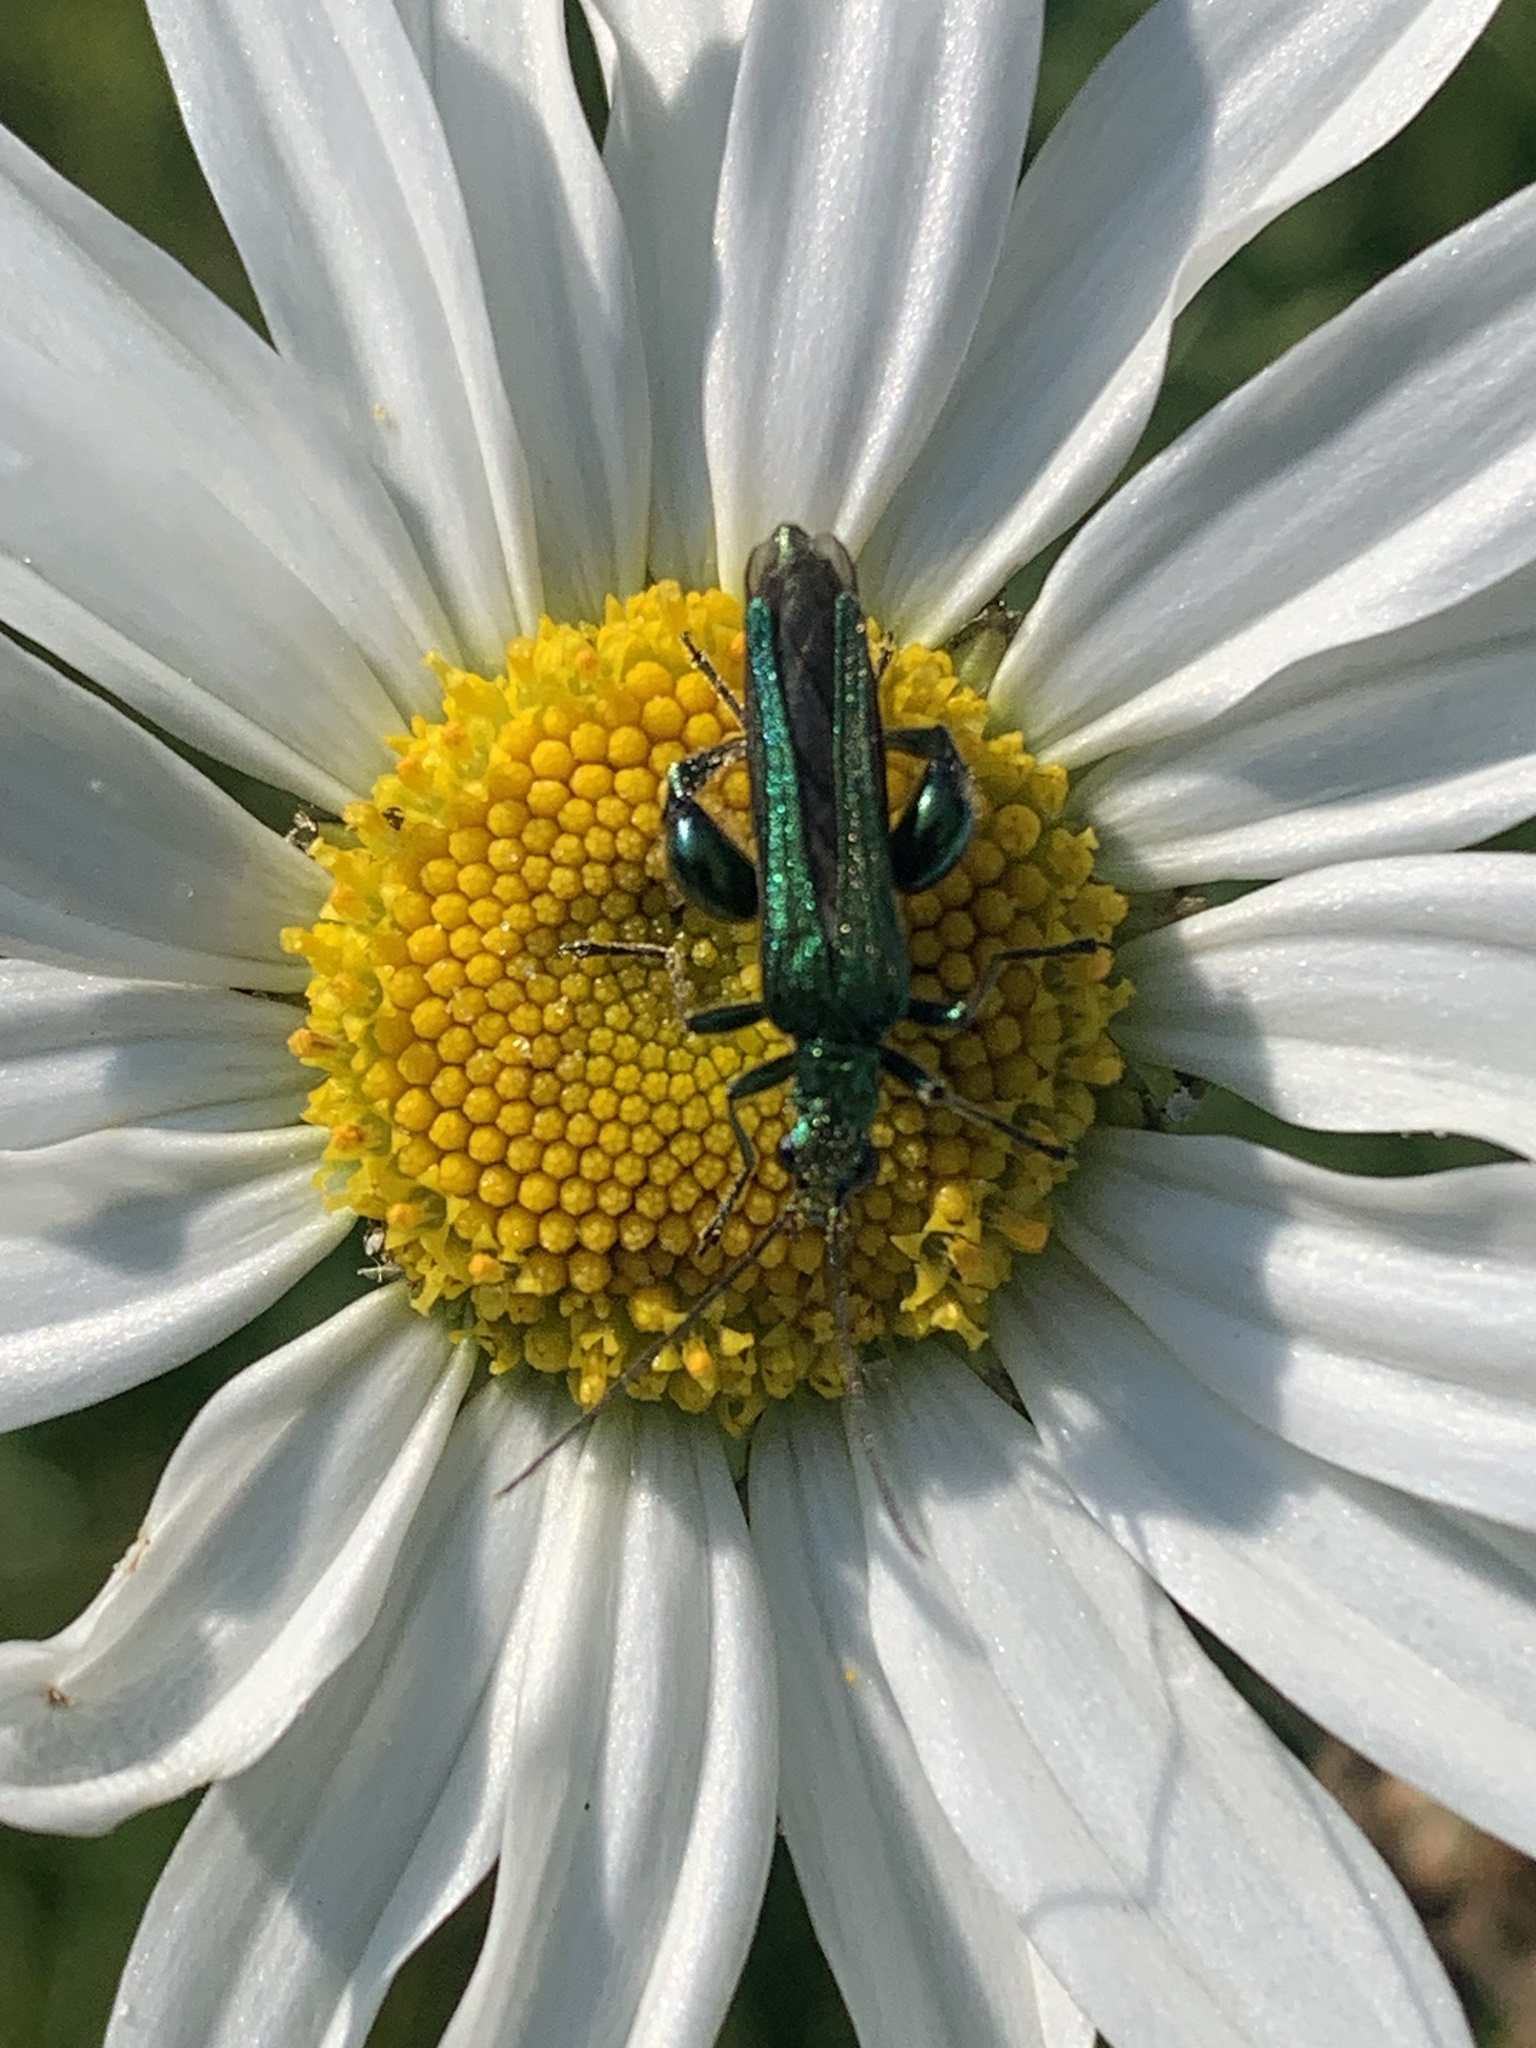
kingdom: Animalia
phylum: Arthropoda
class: Insecta
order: Coleoptera
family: Oedemeridae
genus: Oedemera
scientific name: Oedemera nobilis
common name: Swollen-thighed beetle
